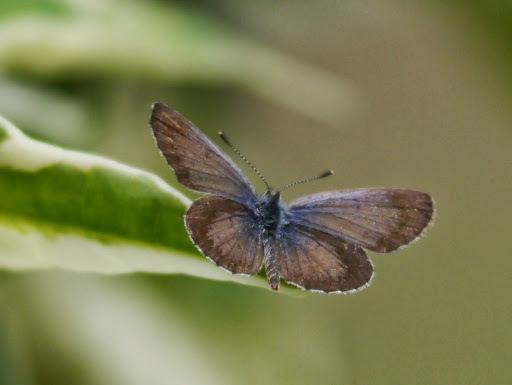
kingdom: Animalia
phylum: Arthropoda
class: Insecta
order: Lepidoptera
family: Lycaenidae
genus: Zizeeria
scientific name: Zizeeria knysna
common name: African grass blue
